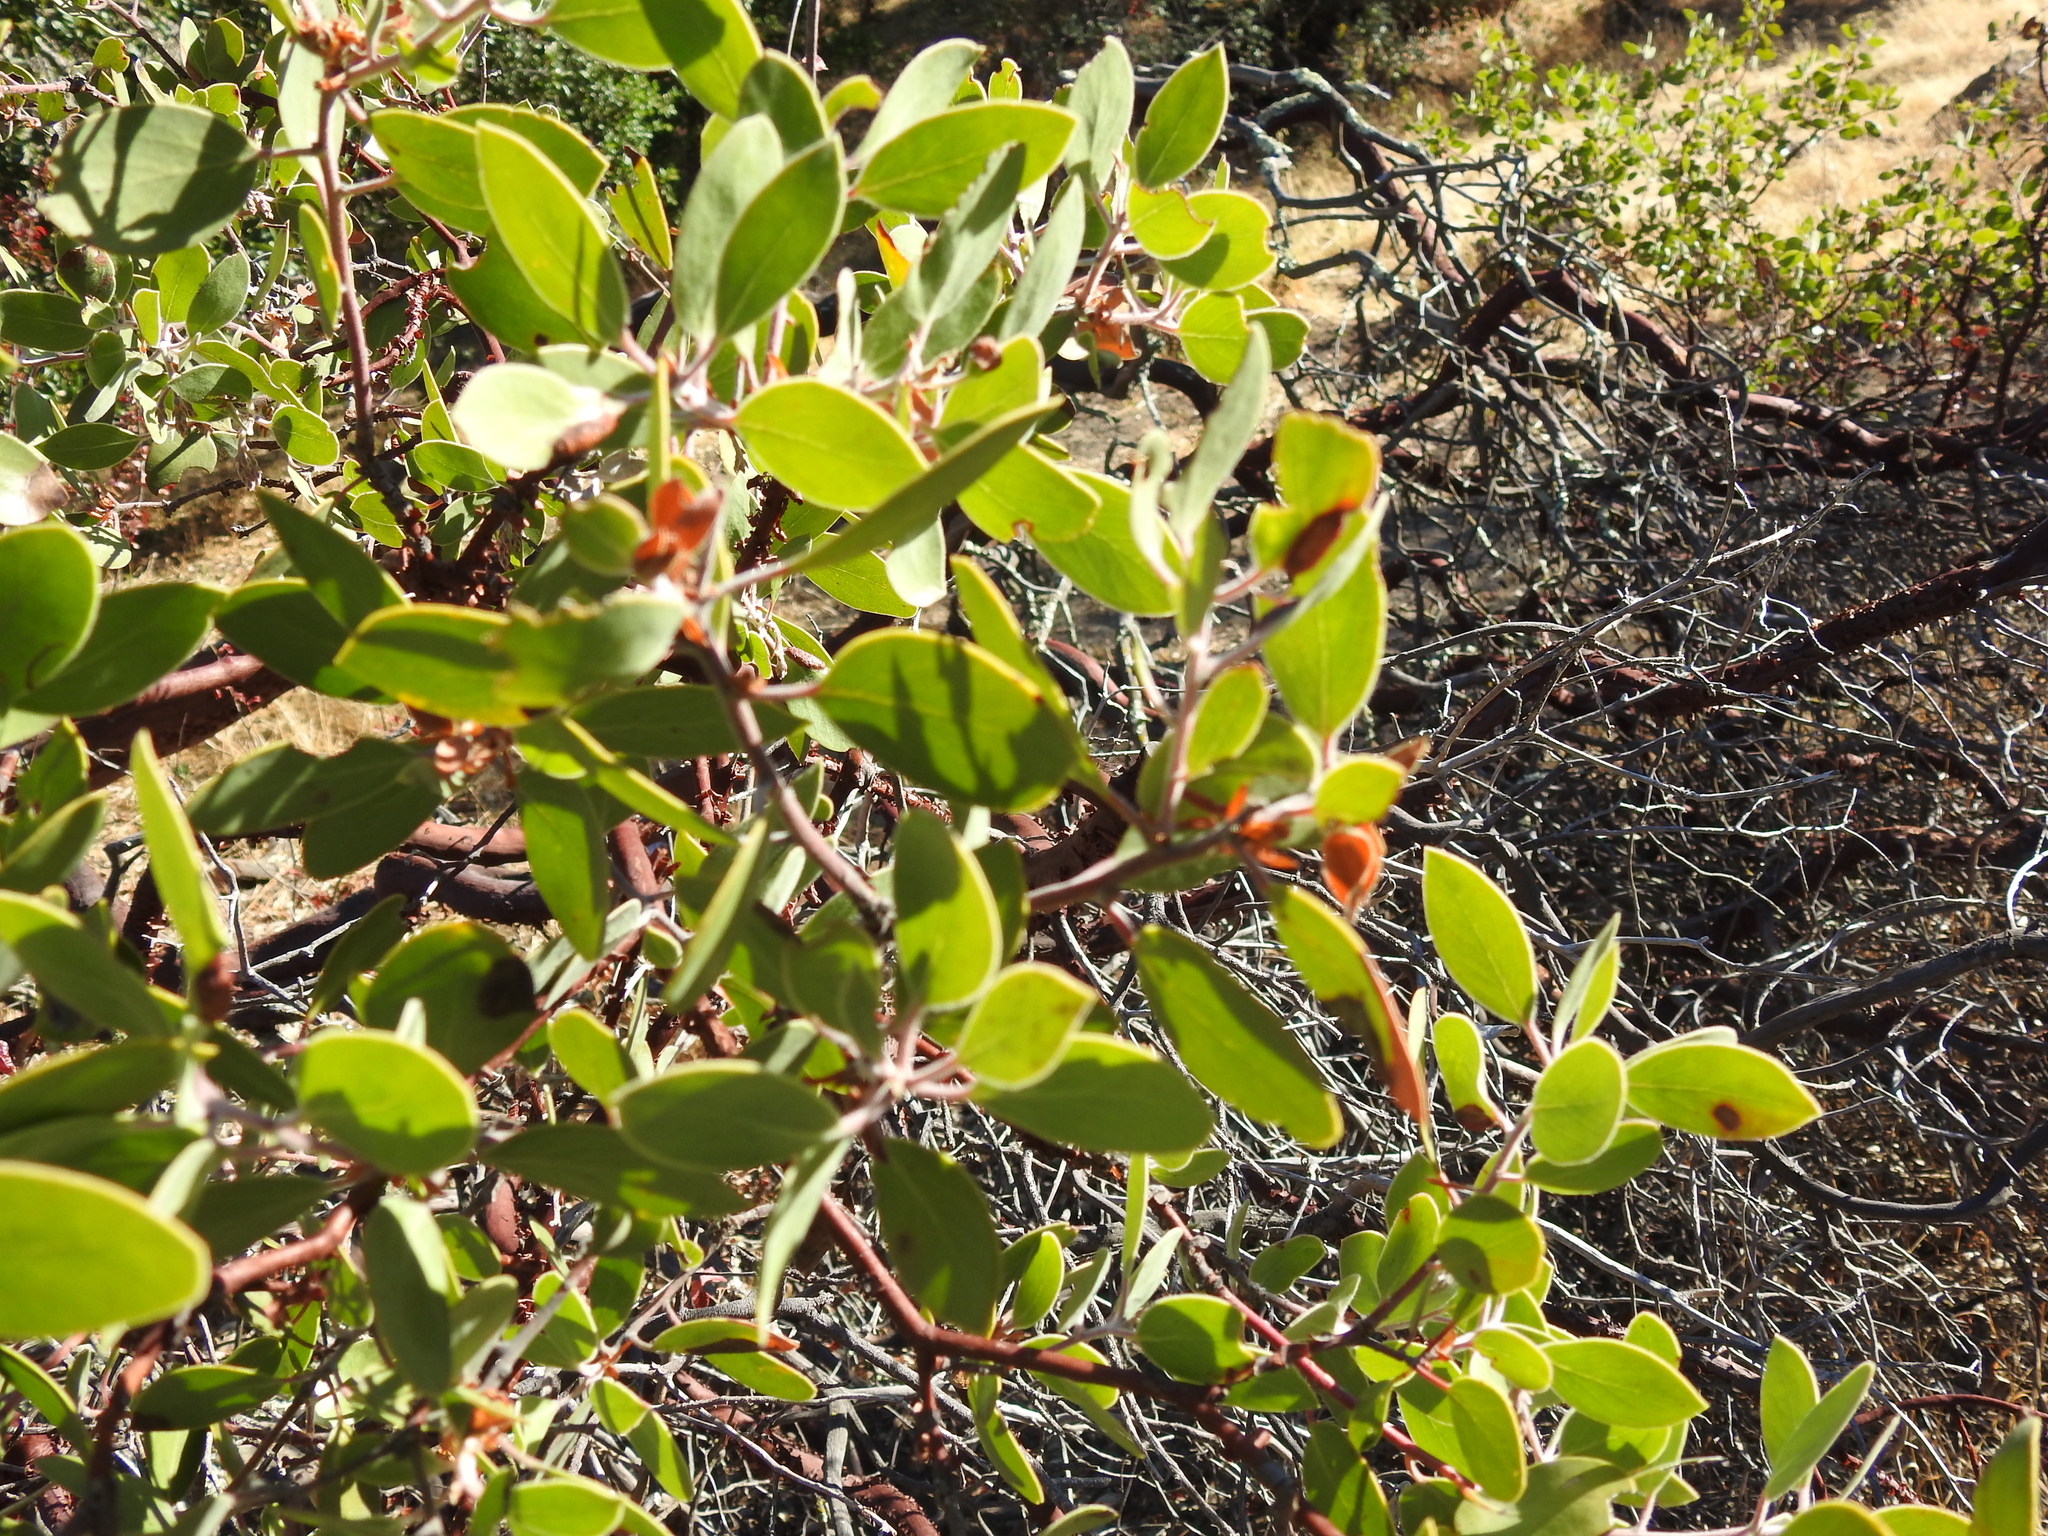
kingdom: Plantae
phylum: Tracheophyta
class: Magnoliopsida
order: Ericales
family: Ericaceae
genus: Arctostaphylos
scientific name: Arctostaphylos manzanita
